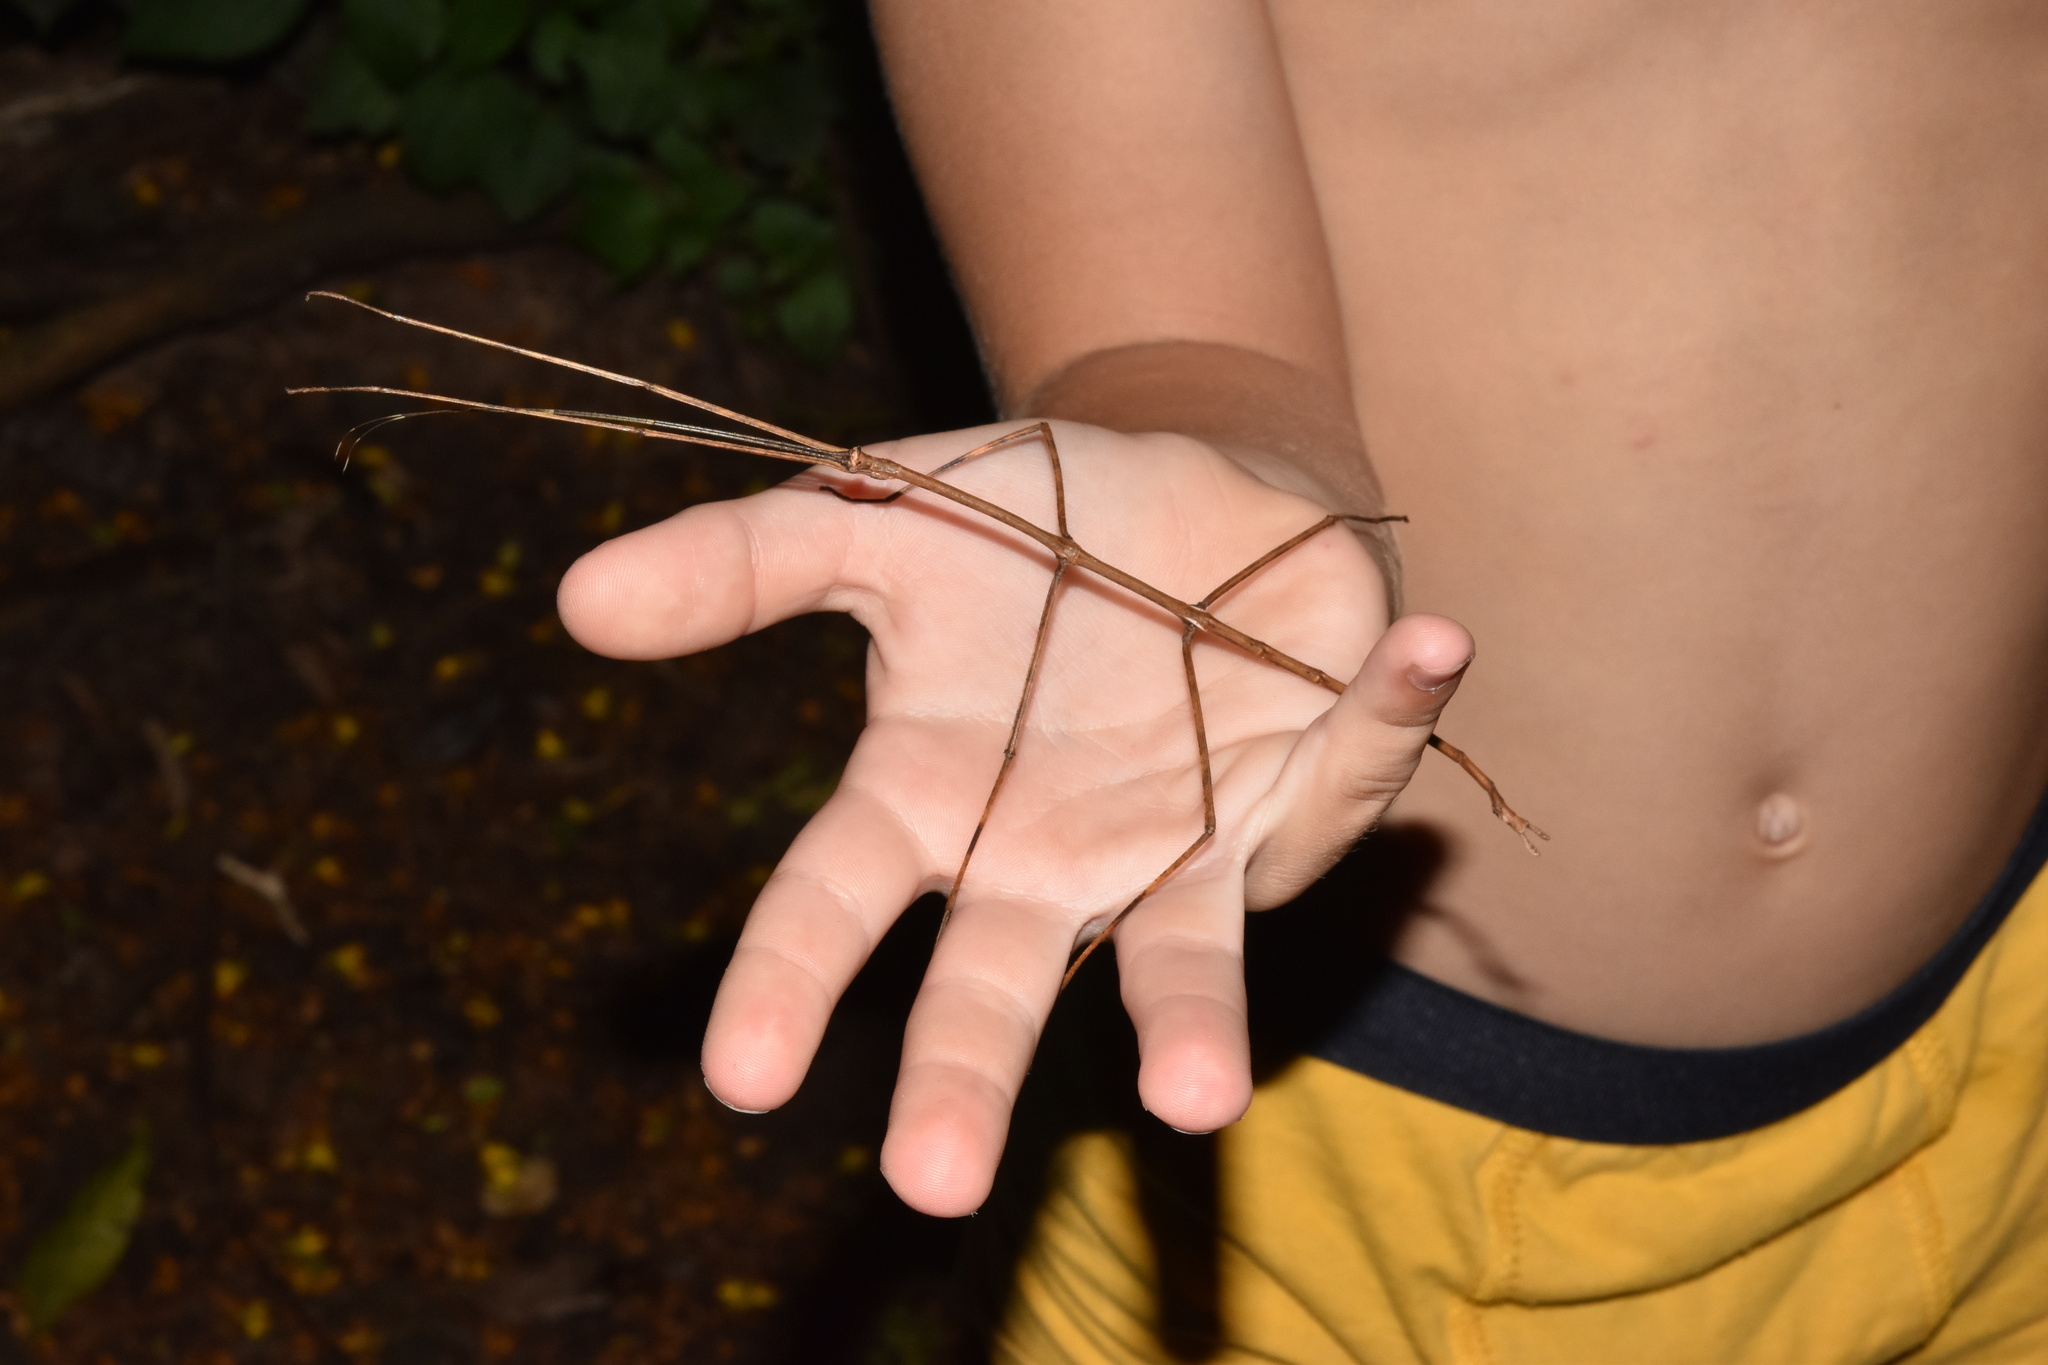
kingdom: Animalia
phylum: Arthropoda
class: Insecta
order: Phasmida
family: Diapheromeridae
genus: Bactricia
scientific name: Bactricia bituberculata
